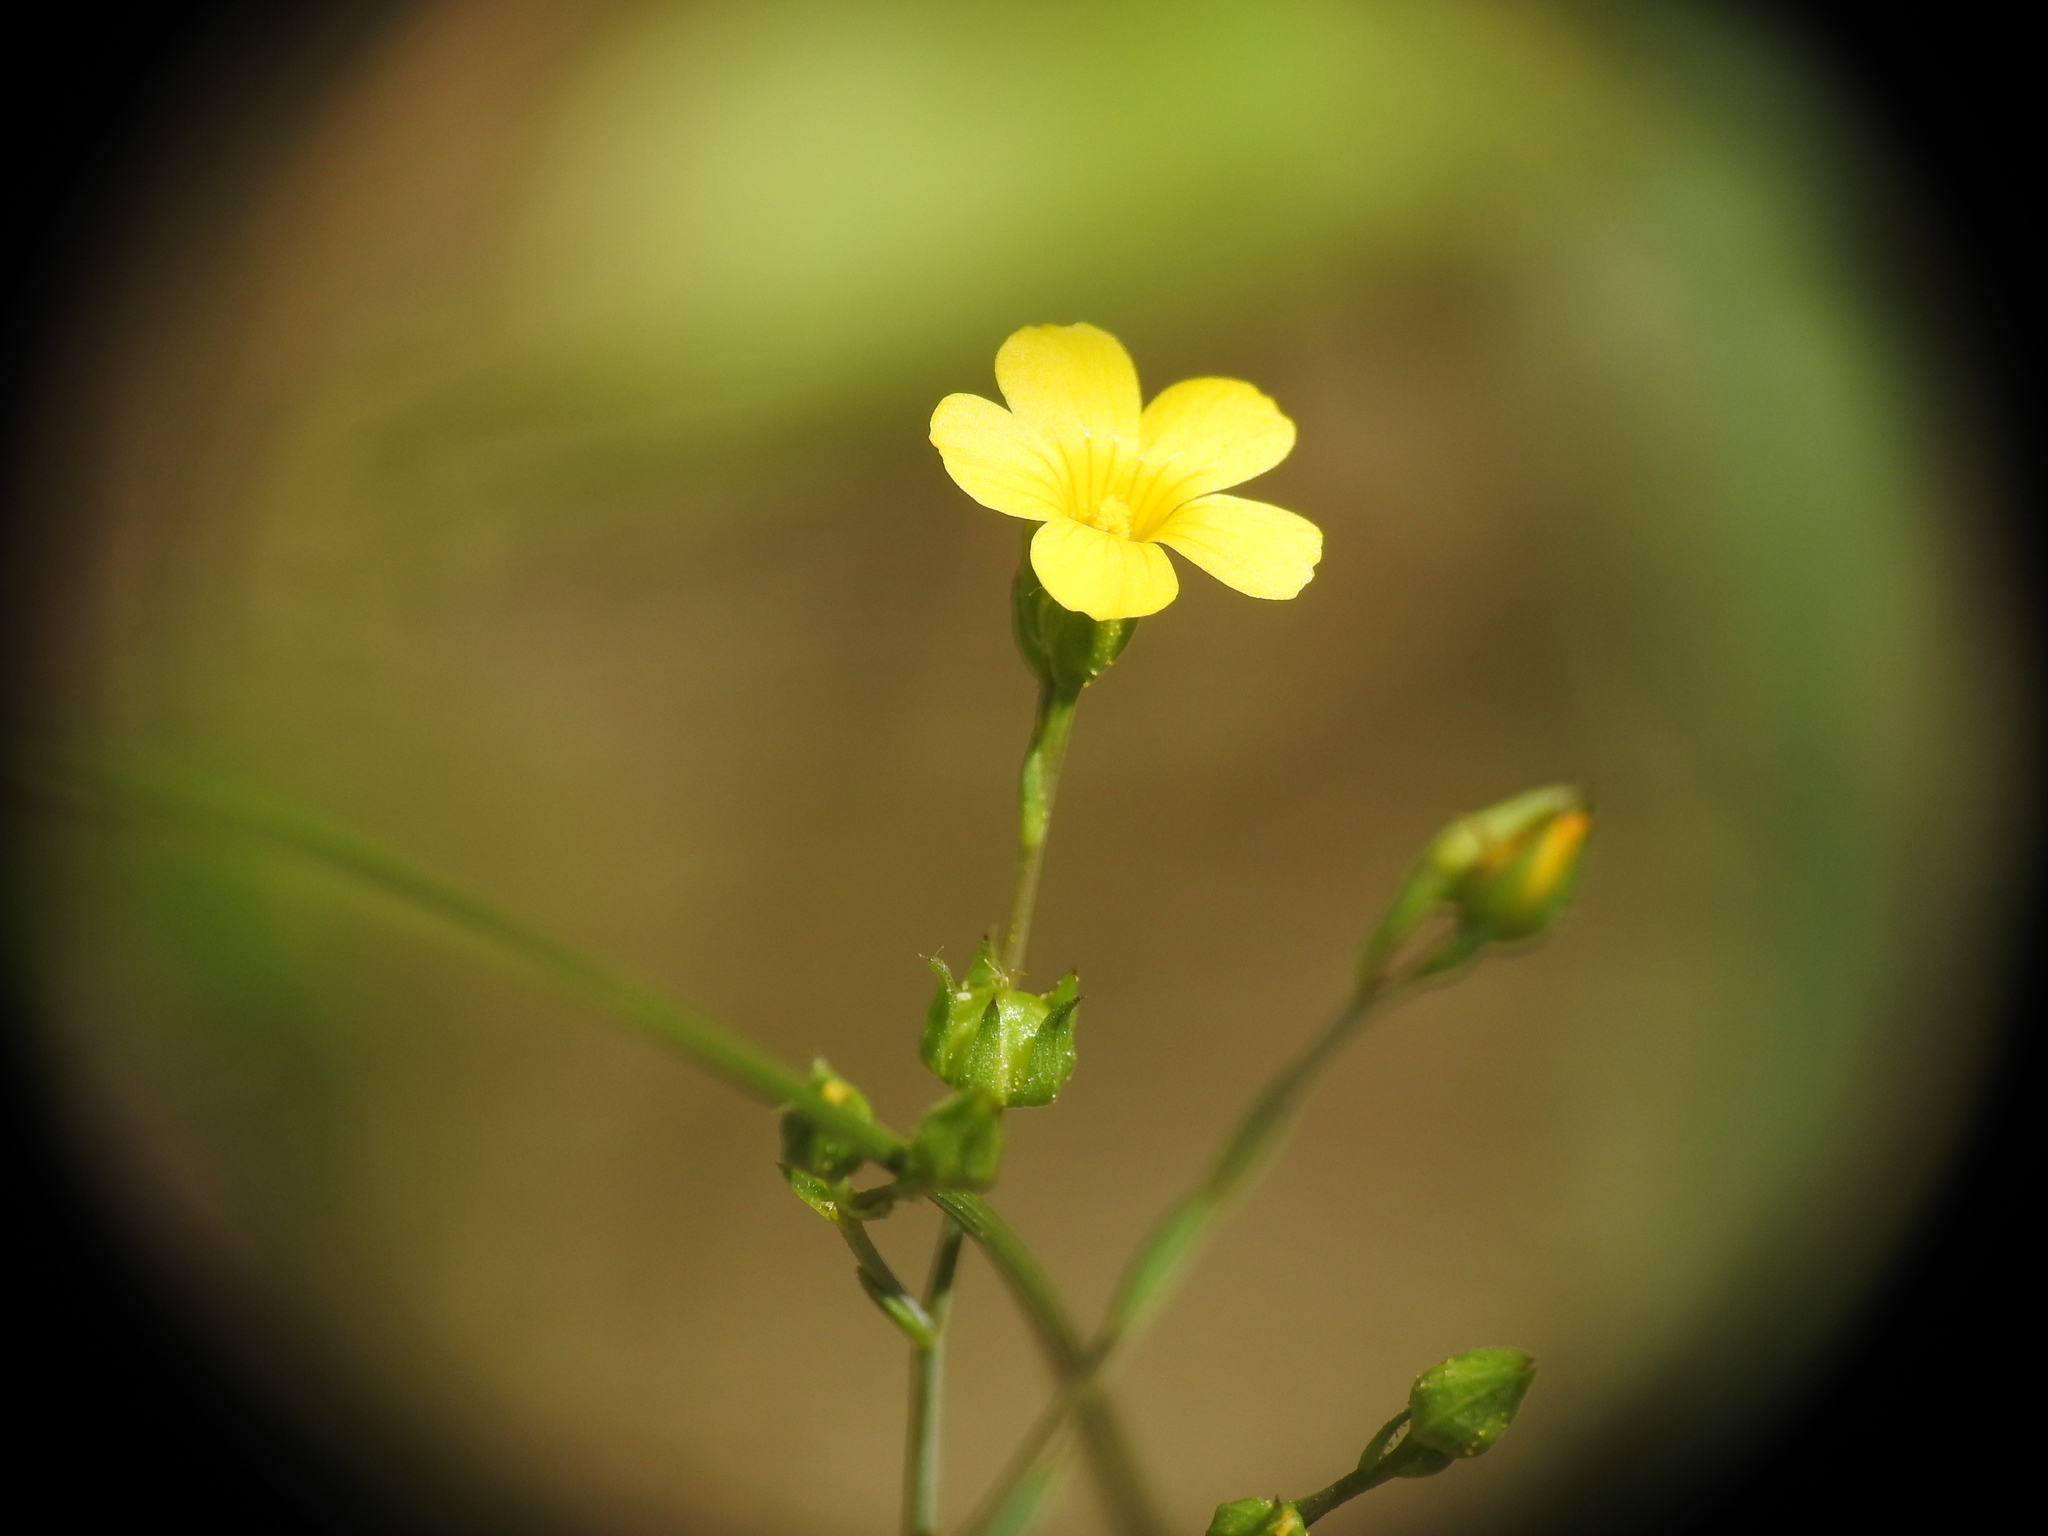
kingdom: Plantae
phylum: Tracheophyta
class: Magnoliopsida
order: Malpighiales
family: Linaceae
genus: Linum
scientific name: Linum trigynum
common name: French flax
